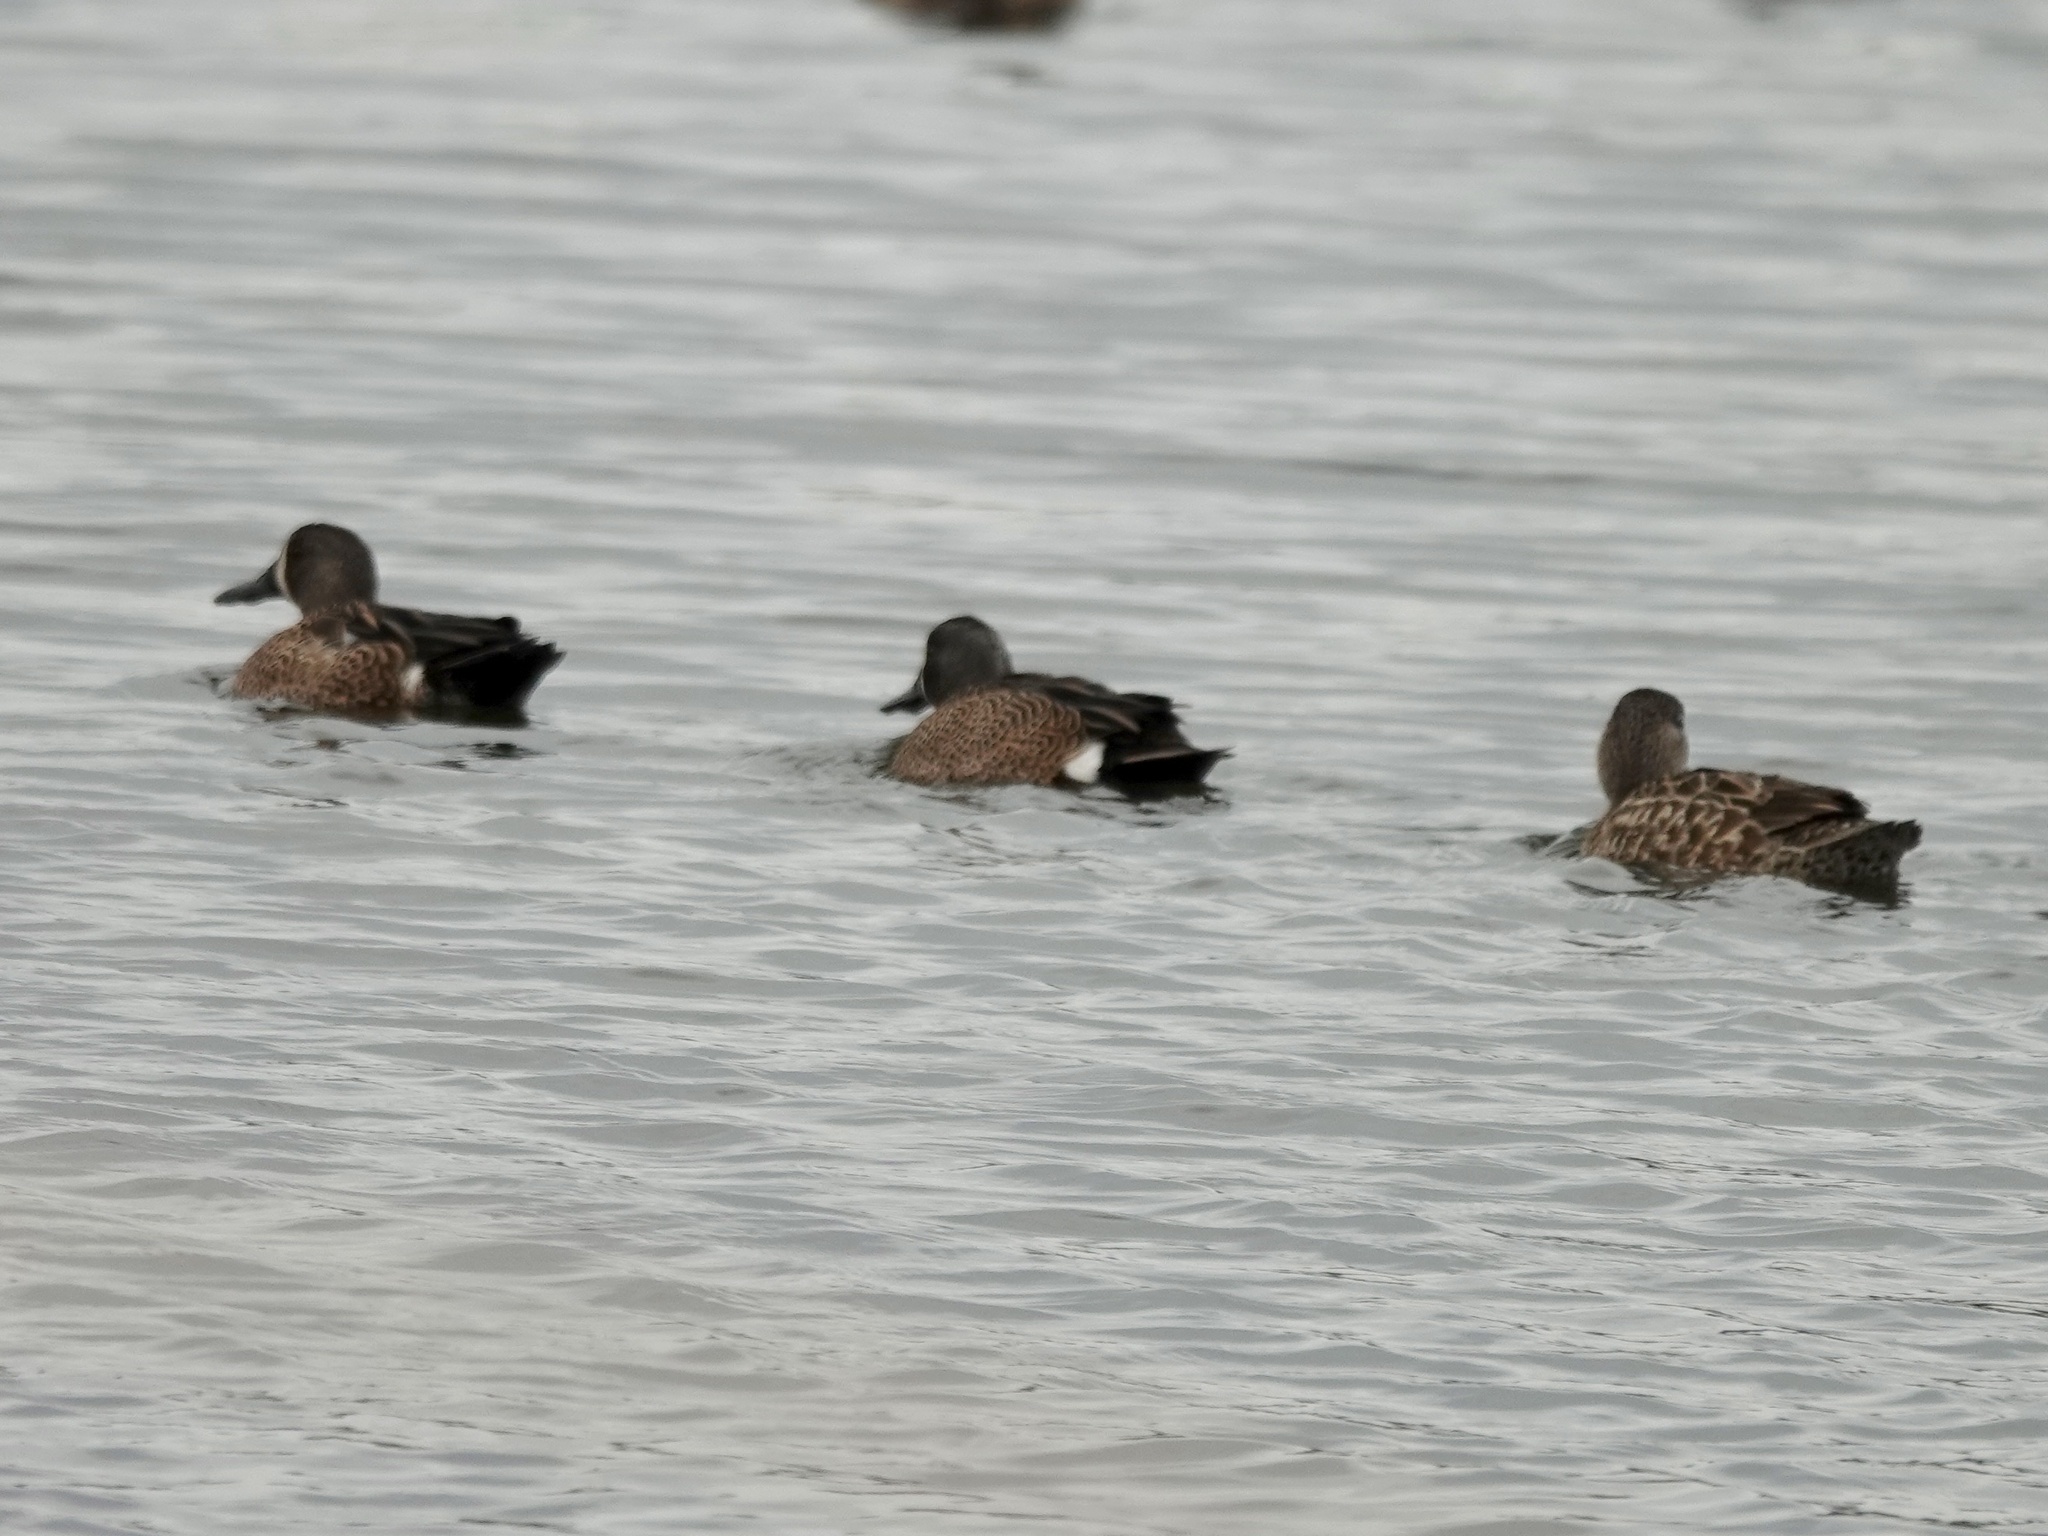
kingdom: Animalia
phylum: Chordata
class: Aves
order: Anseriformes
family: Anatidae
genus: Spatula
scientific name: Spatula discors
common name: Blue-winged teal
